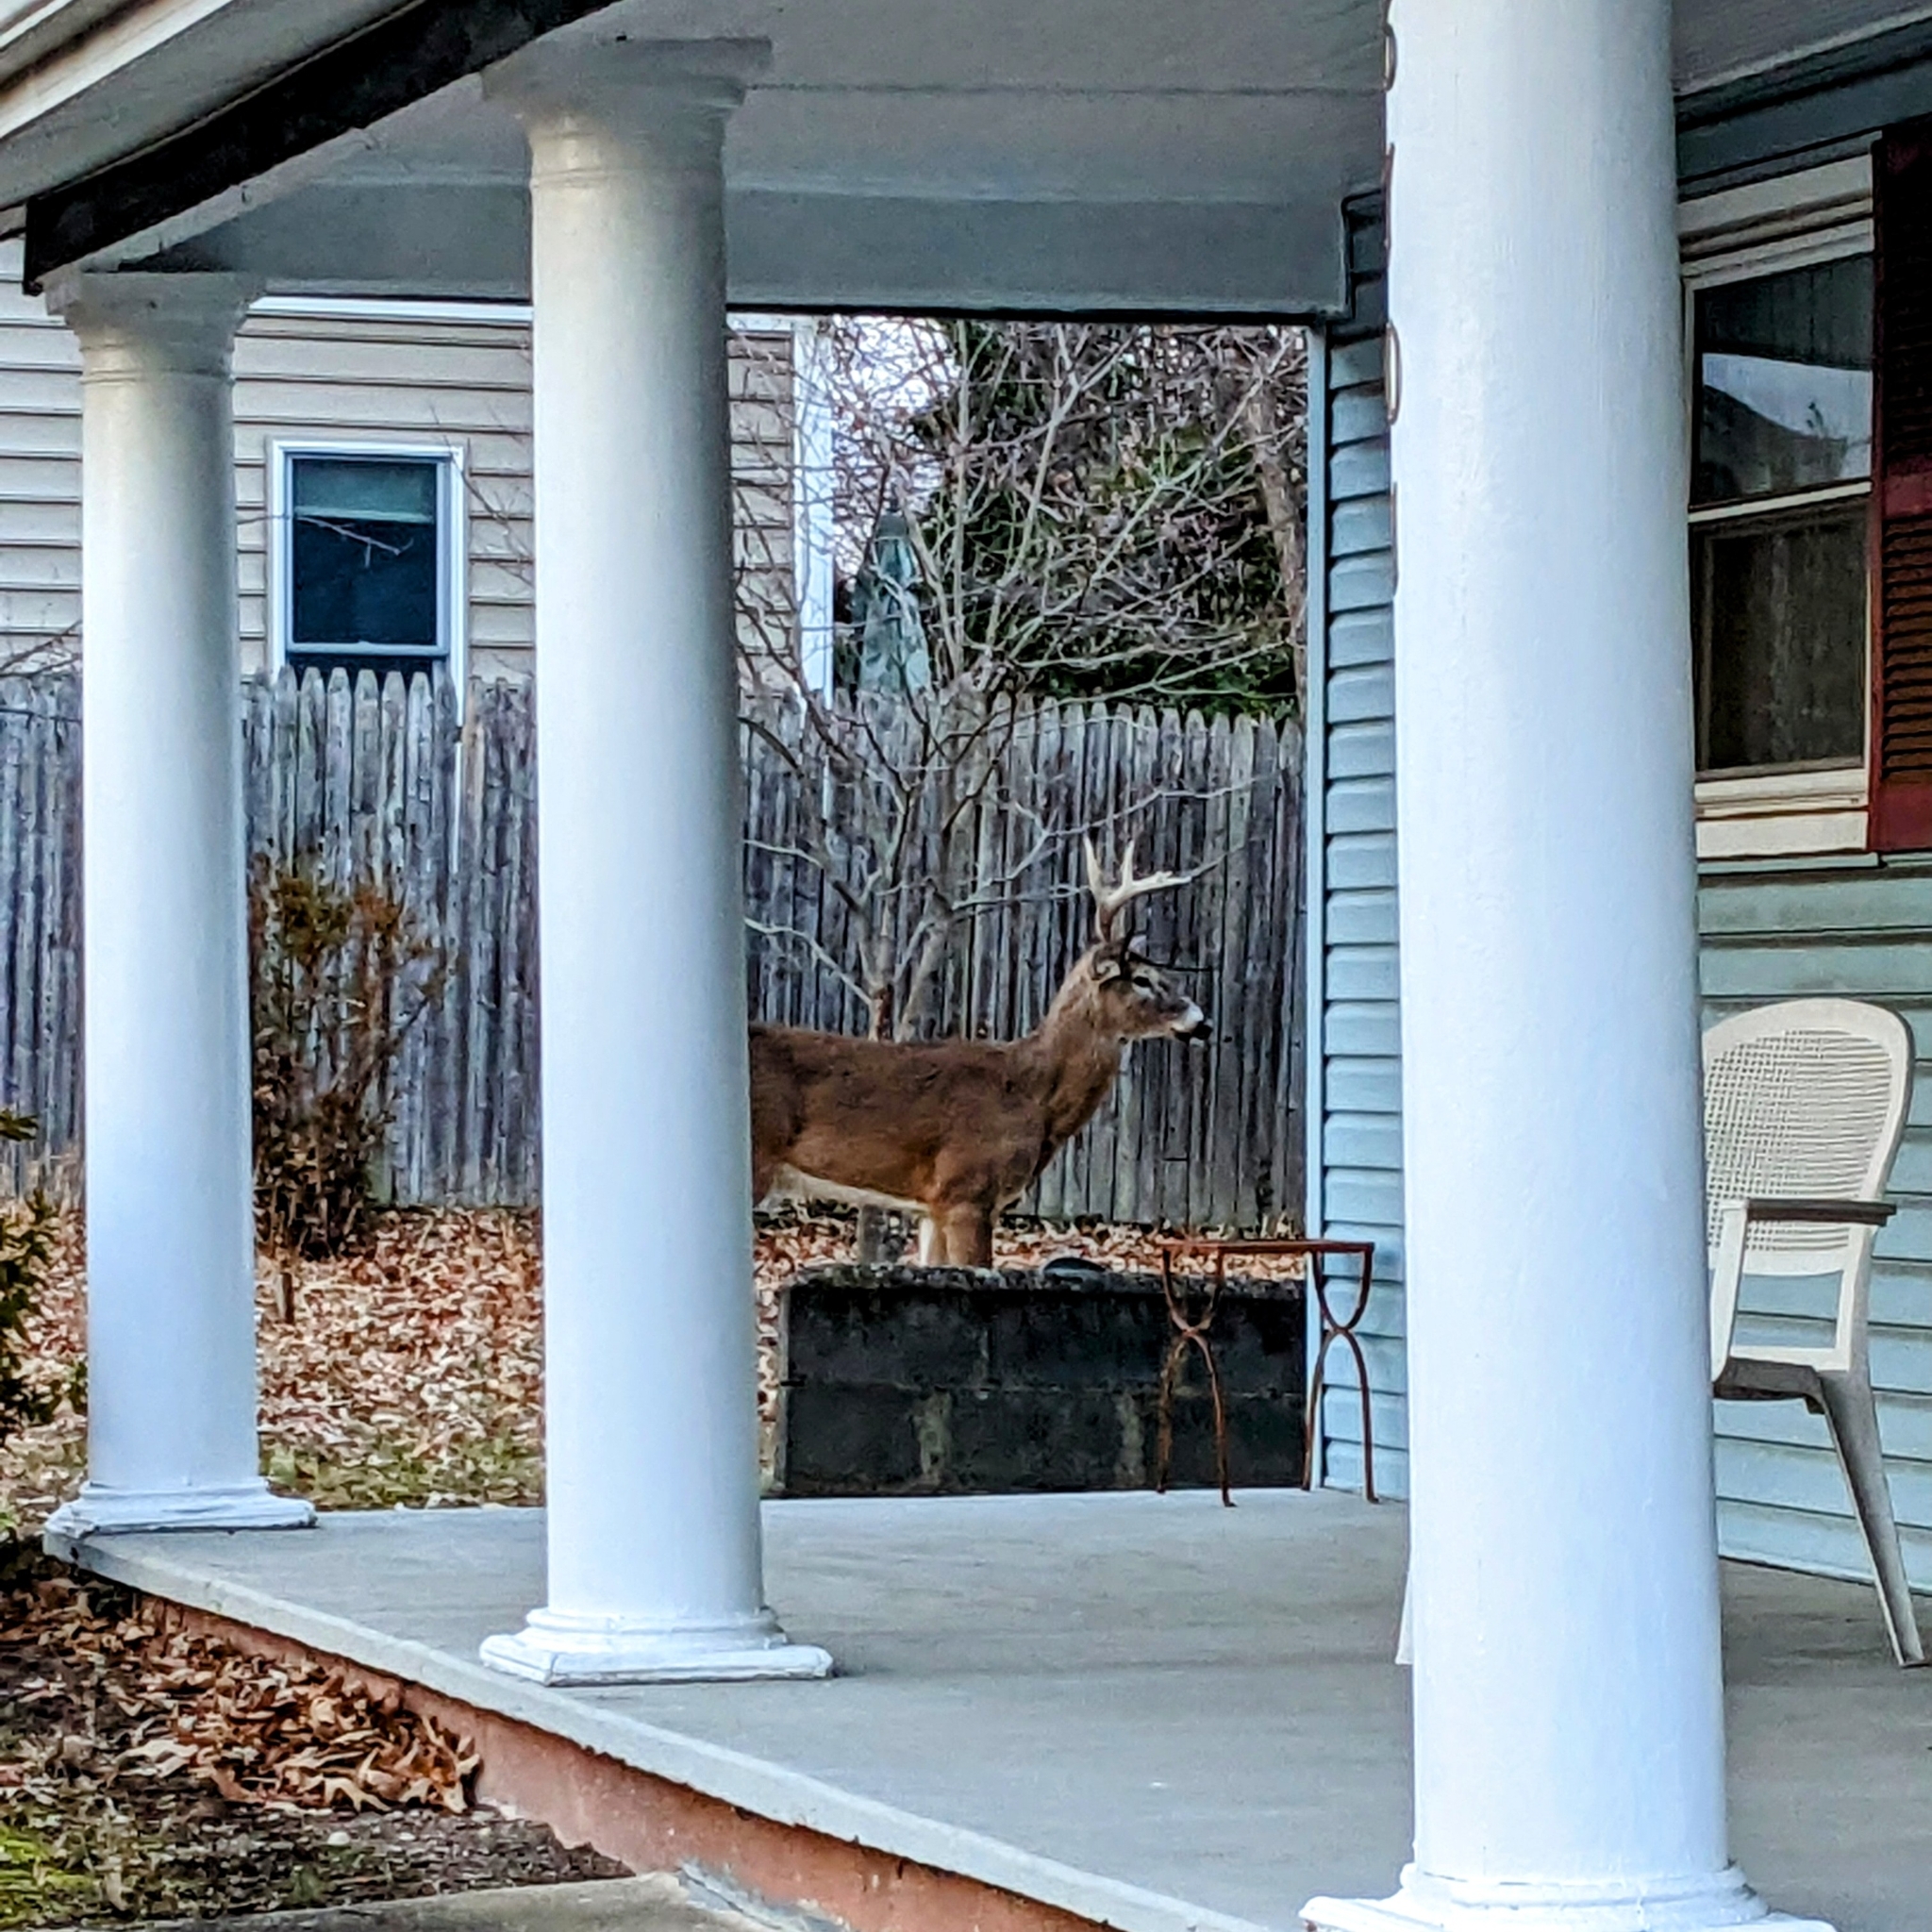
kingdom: Animalia
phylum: Chordata
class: Mammalia
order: Artiodactyla
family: Cervidae
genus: Odocoileus
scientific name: Odocoileus virginianus
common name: White-tailed deer
